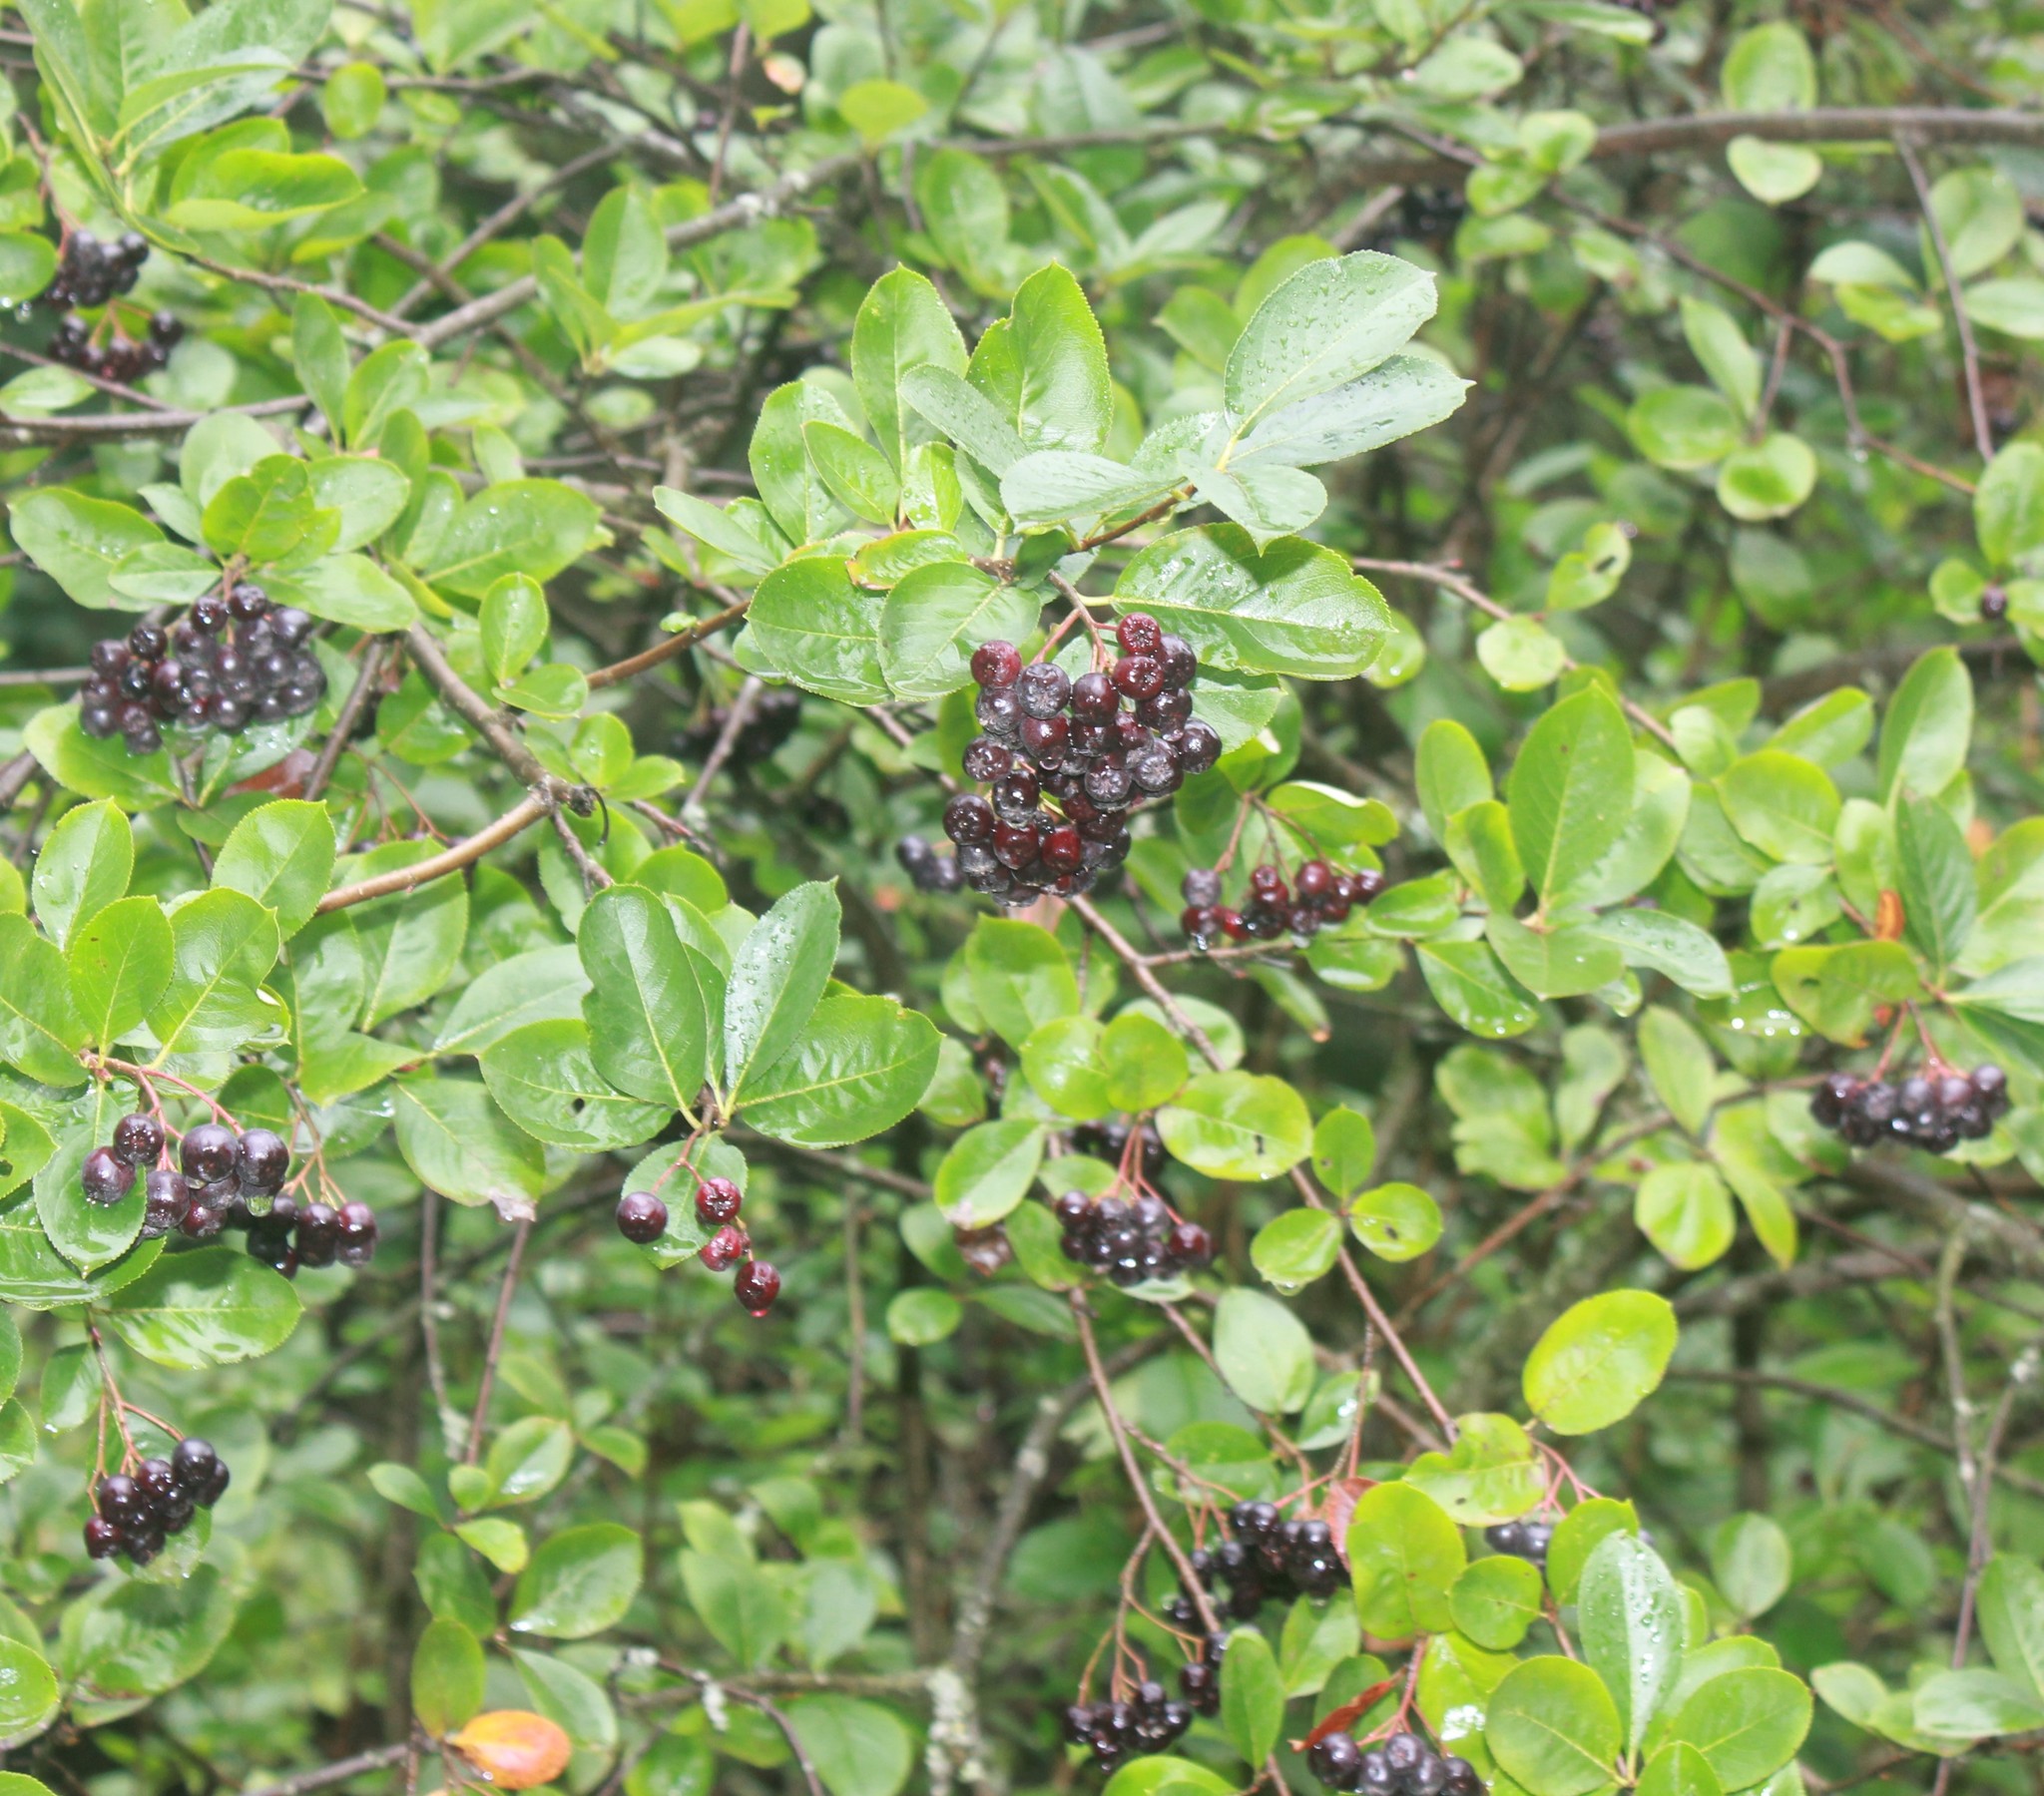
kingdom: Plantae
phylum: Tracheophyta
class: Magnoliopsida
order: Rosales
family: Rosaceae
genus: Sorbaronia
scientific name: Sorbaronia arsenii
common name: Arsène's mountain-ash
